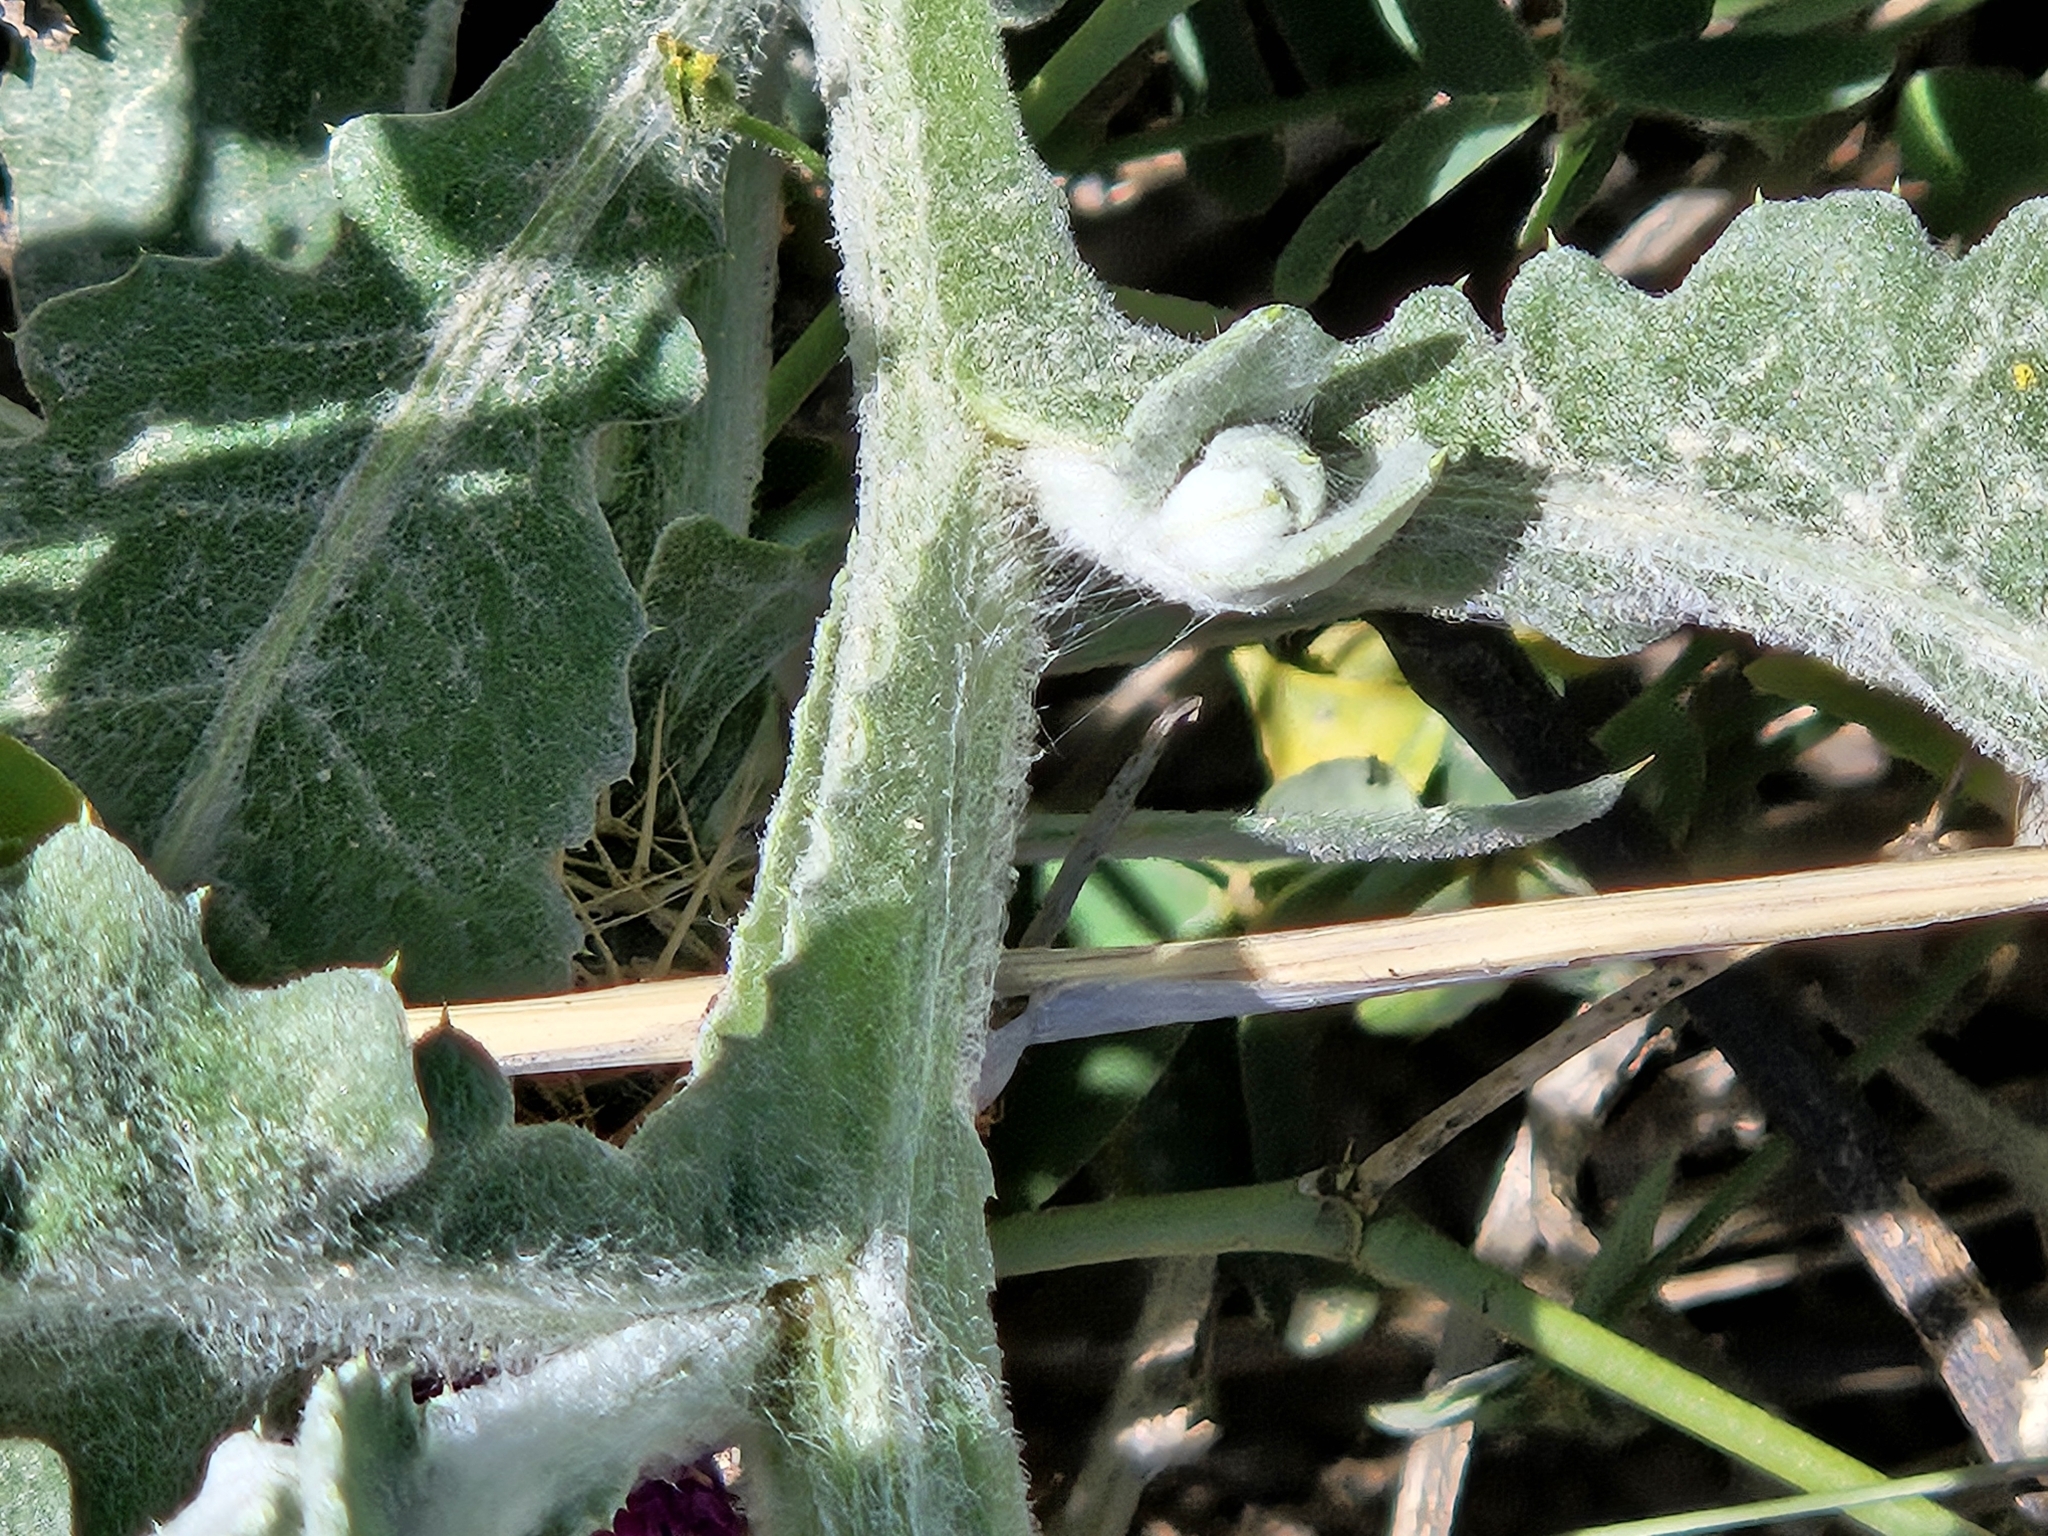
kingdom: Plantae
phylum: Tracheophyta
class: Magnoliopsida
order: Asterales
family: Asteraceae
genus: Centaurea
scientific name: Centaurea seridis
